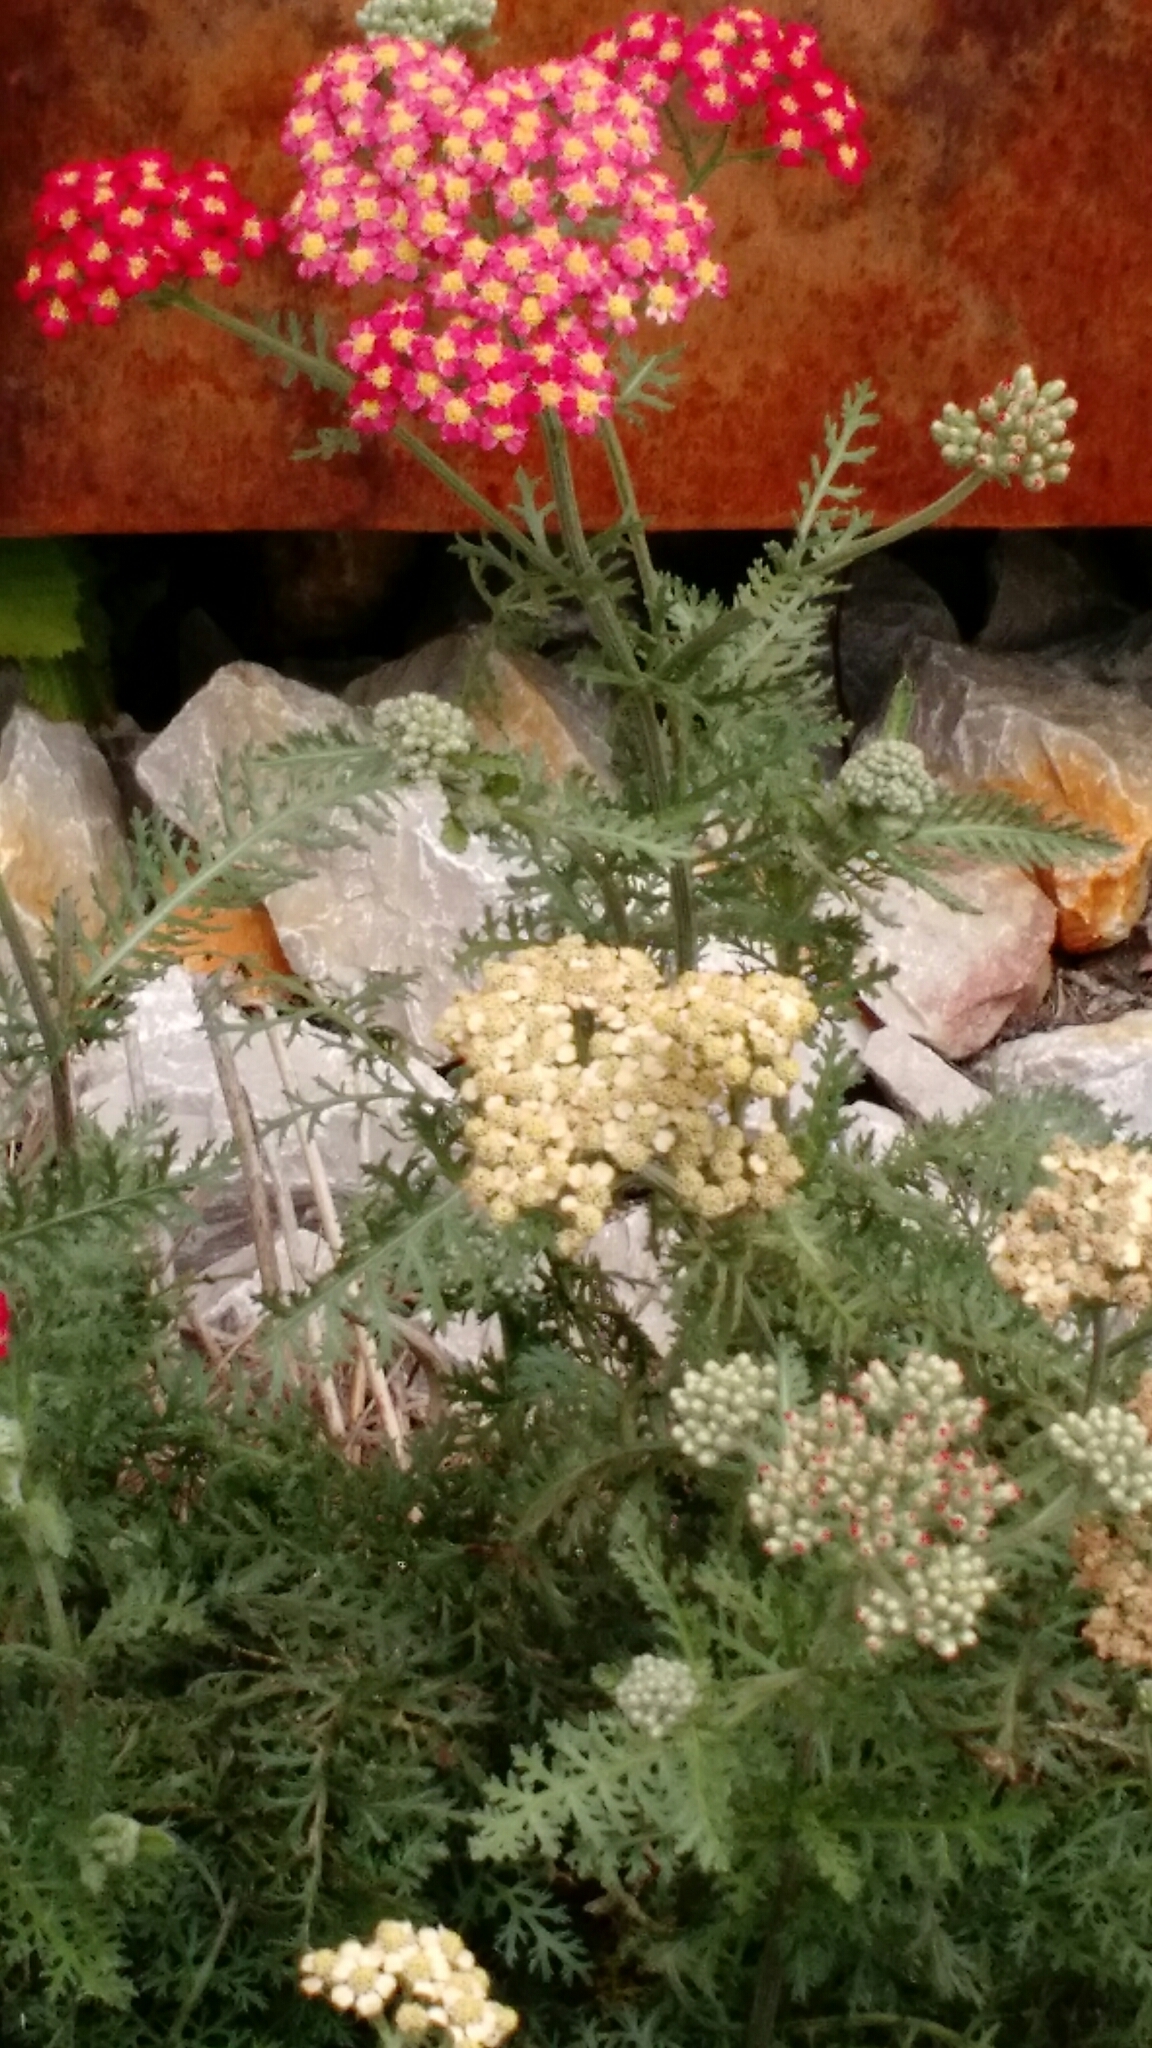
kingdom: Plantae
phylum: Tracheophyta
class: Magnoliopsida
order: Asterales
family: Asteraceae
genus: Achillea
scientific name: Achillea millefolium
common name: Yarrow
